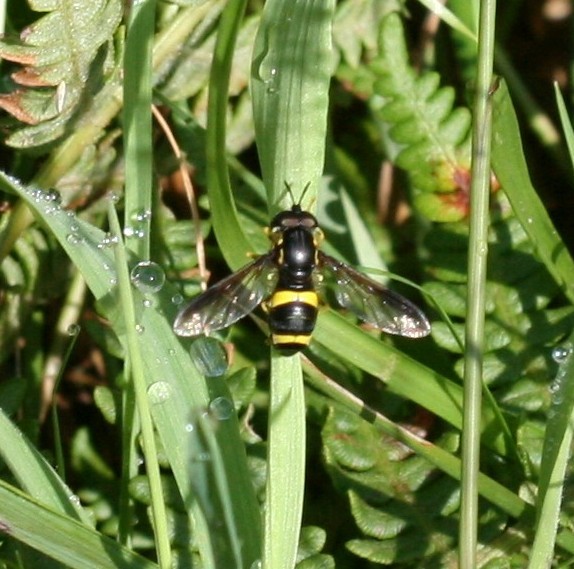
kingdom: Animalia
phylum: Arthropoda
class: Insecta
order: Diptera
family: Syrphidae
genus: Chrysotoxum
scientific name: Chrysotoxum bicincta
